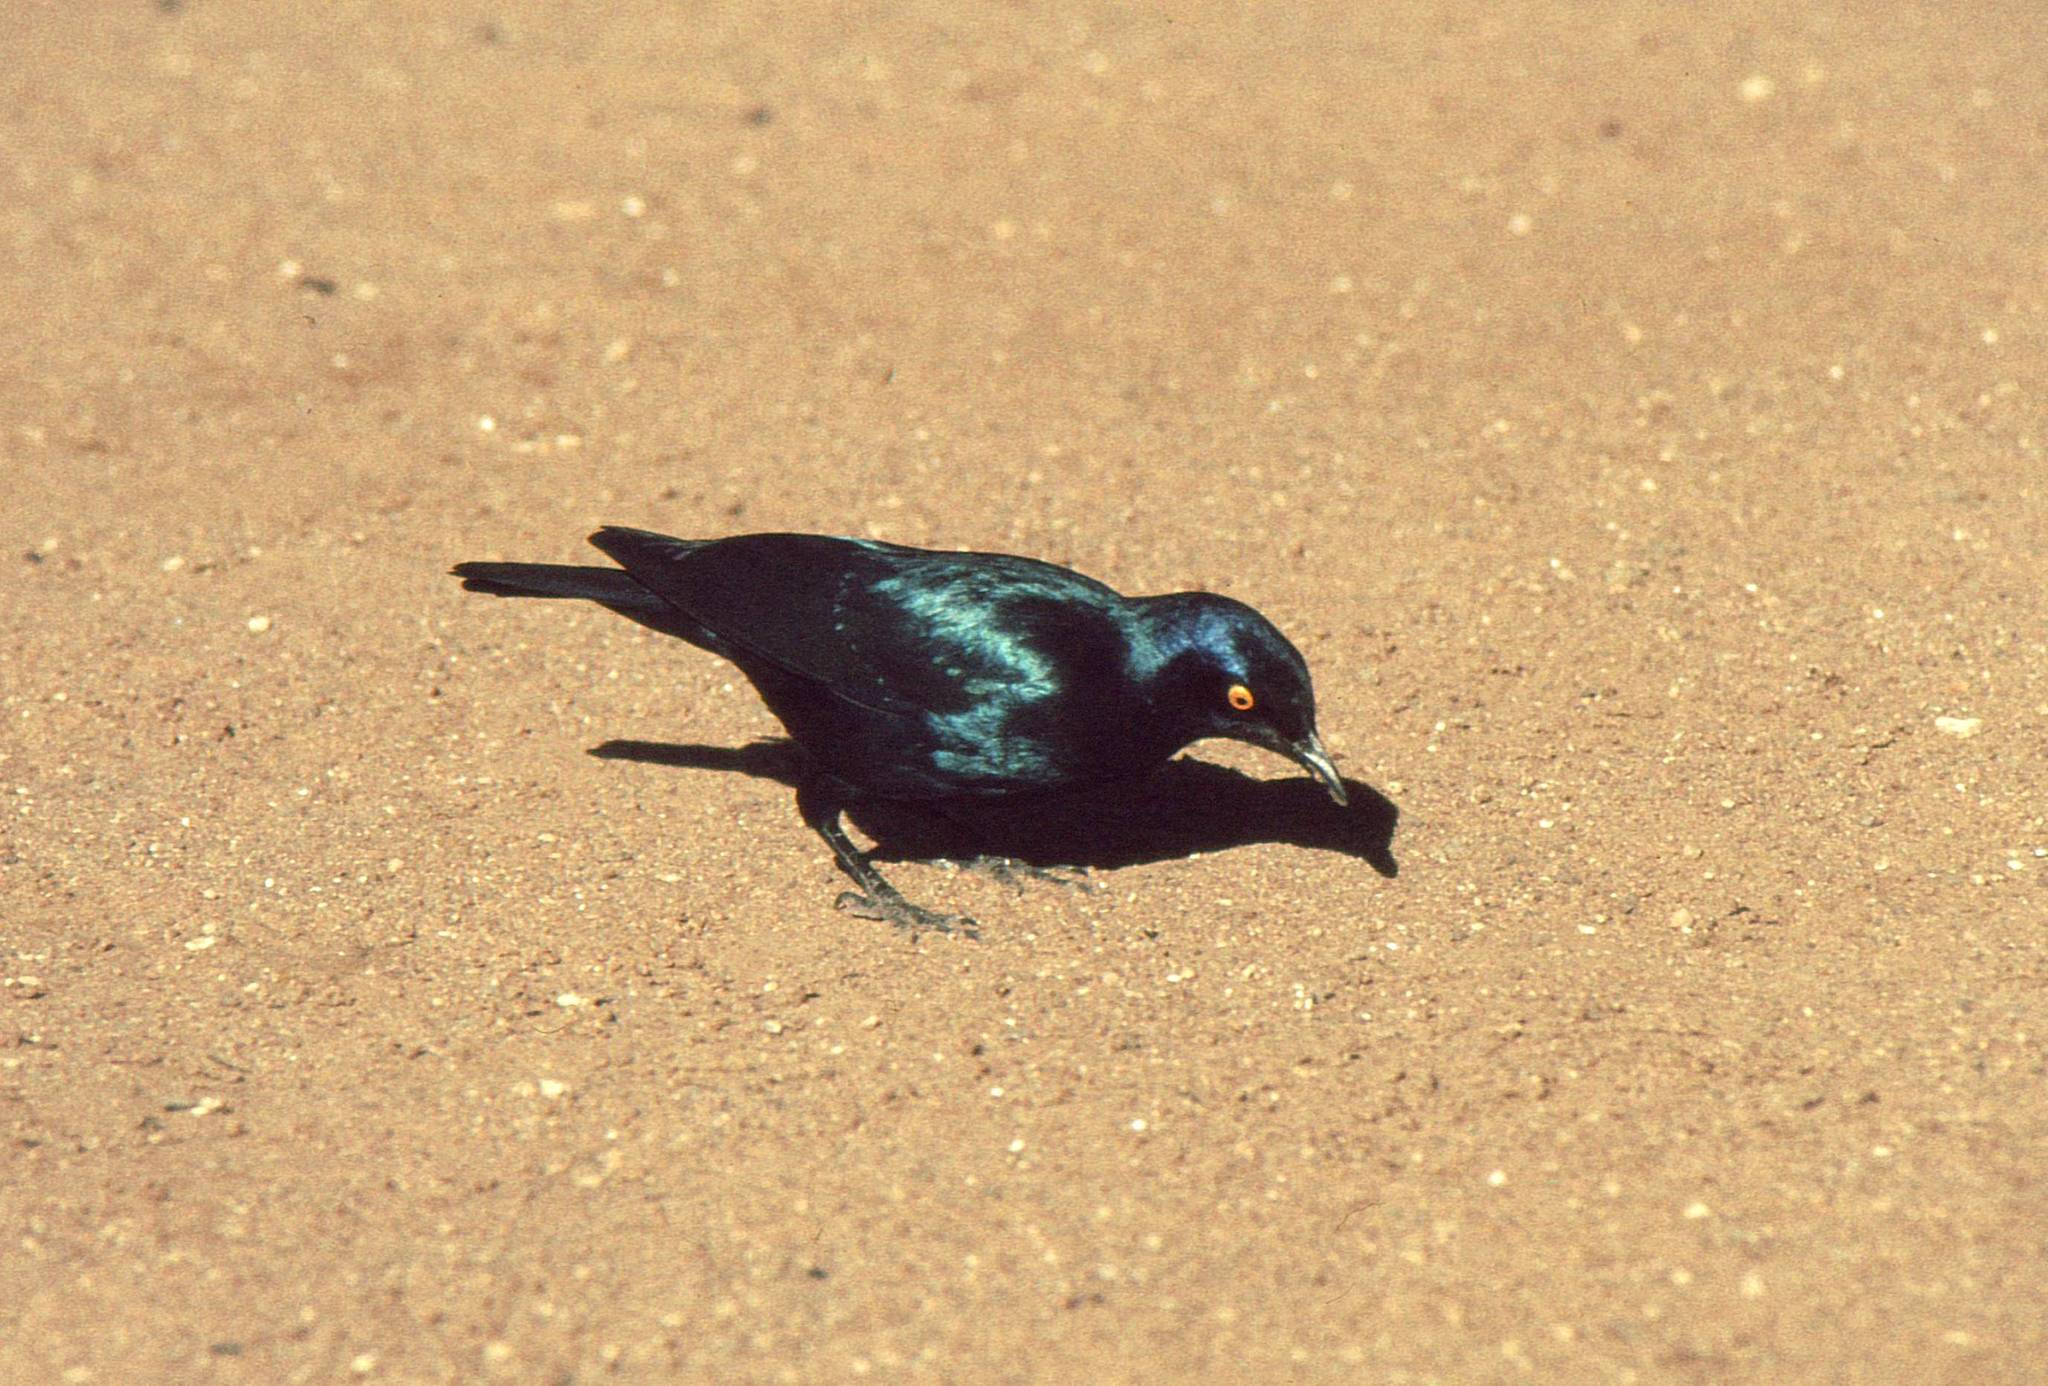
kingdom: Animalia
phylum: Chordata
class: Aves
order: Passeriformes
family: Sturnidae
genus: Lamprotornis
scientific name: Lamprotornis nitens
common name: Cape starling
